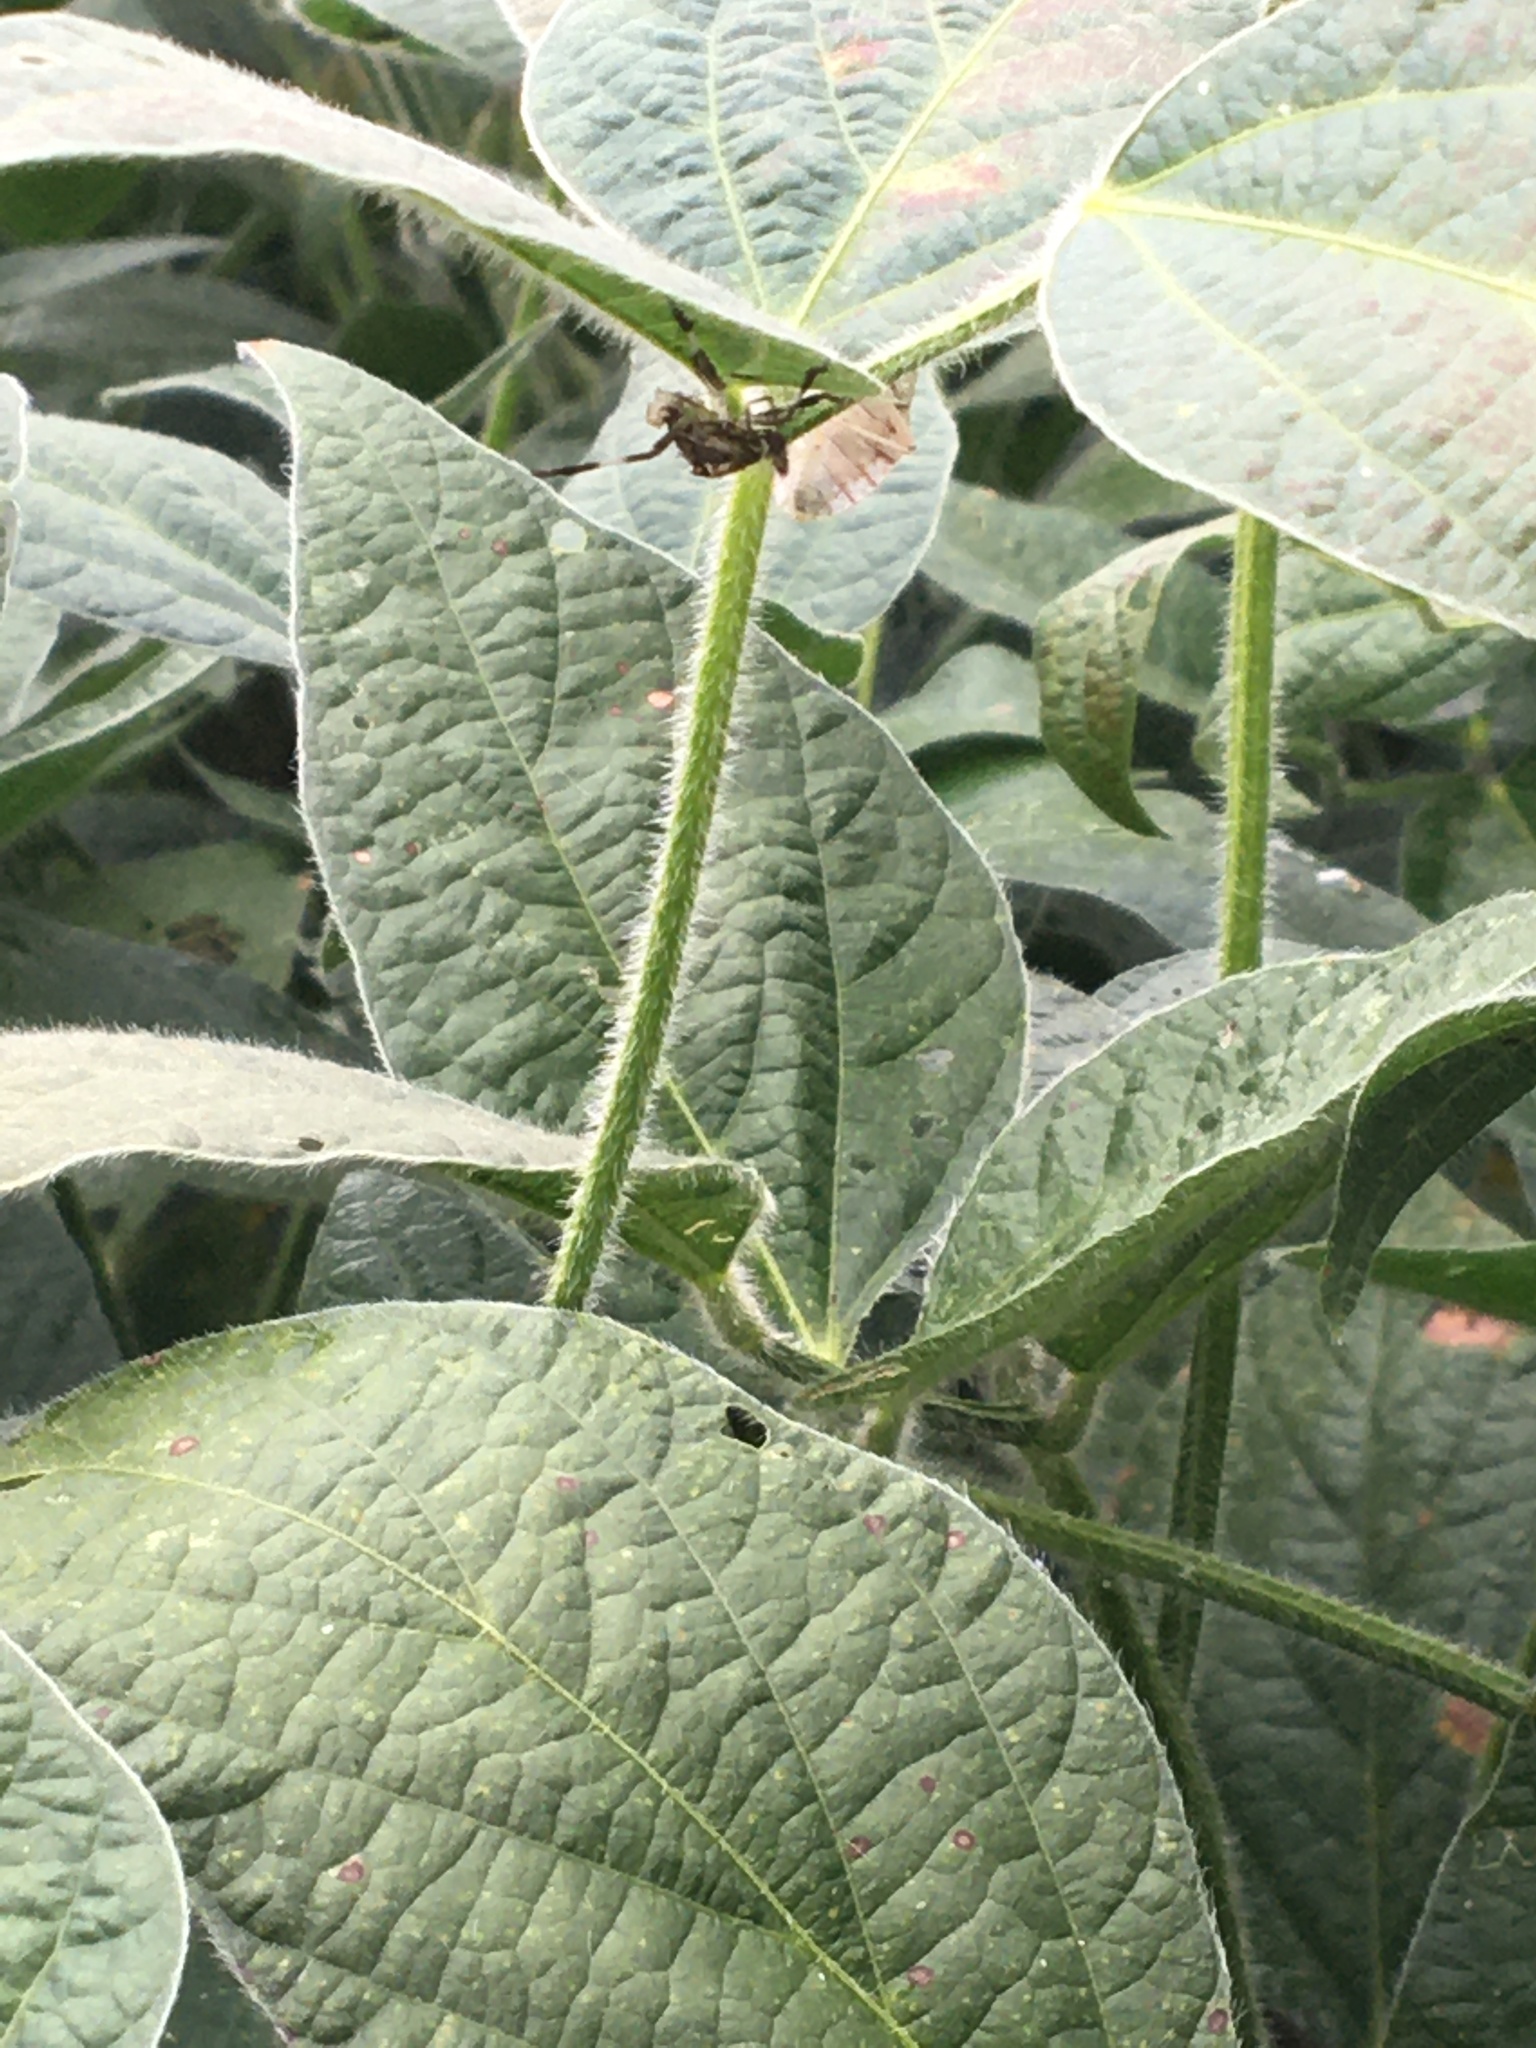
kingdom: Animalia
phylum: Arthropoda
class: Insecta
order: Hemiptera
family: Pentatomidae
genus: Halyomorpha
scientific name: Halyomorpha halys
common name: Brown marmorated stink bug
